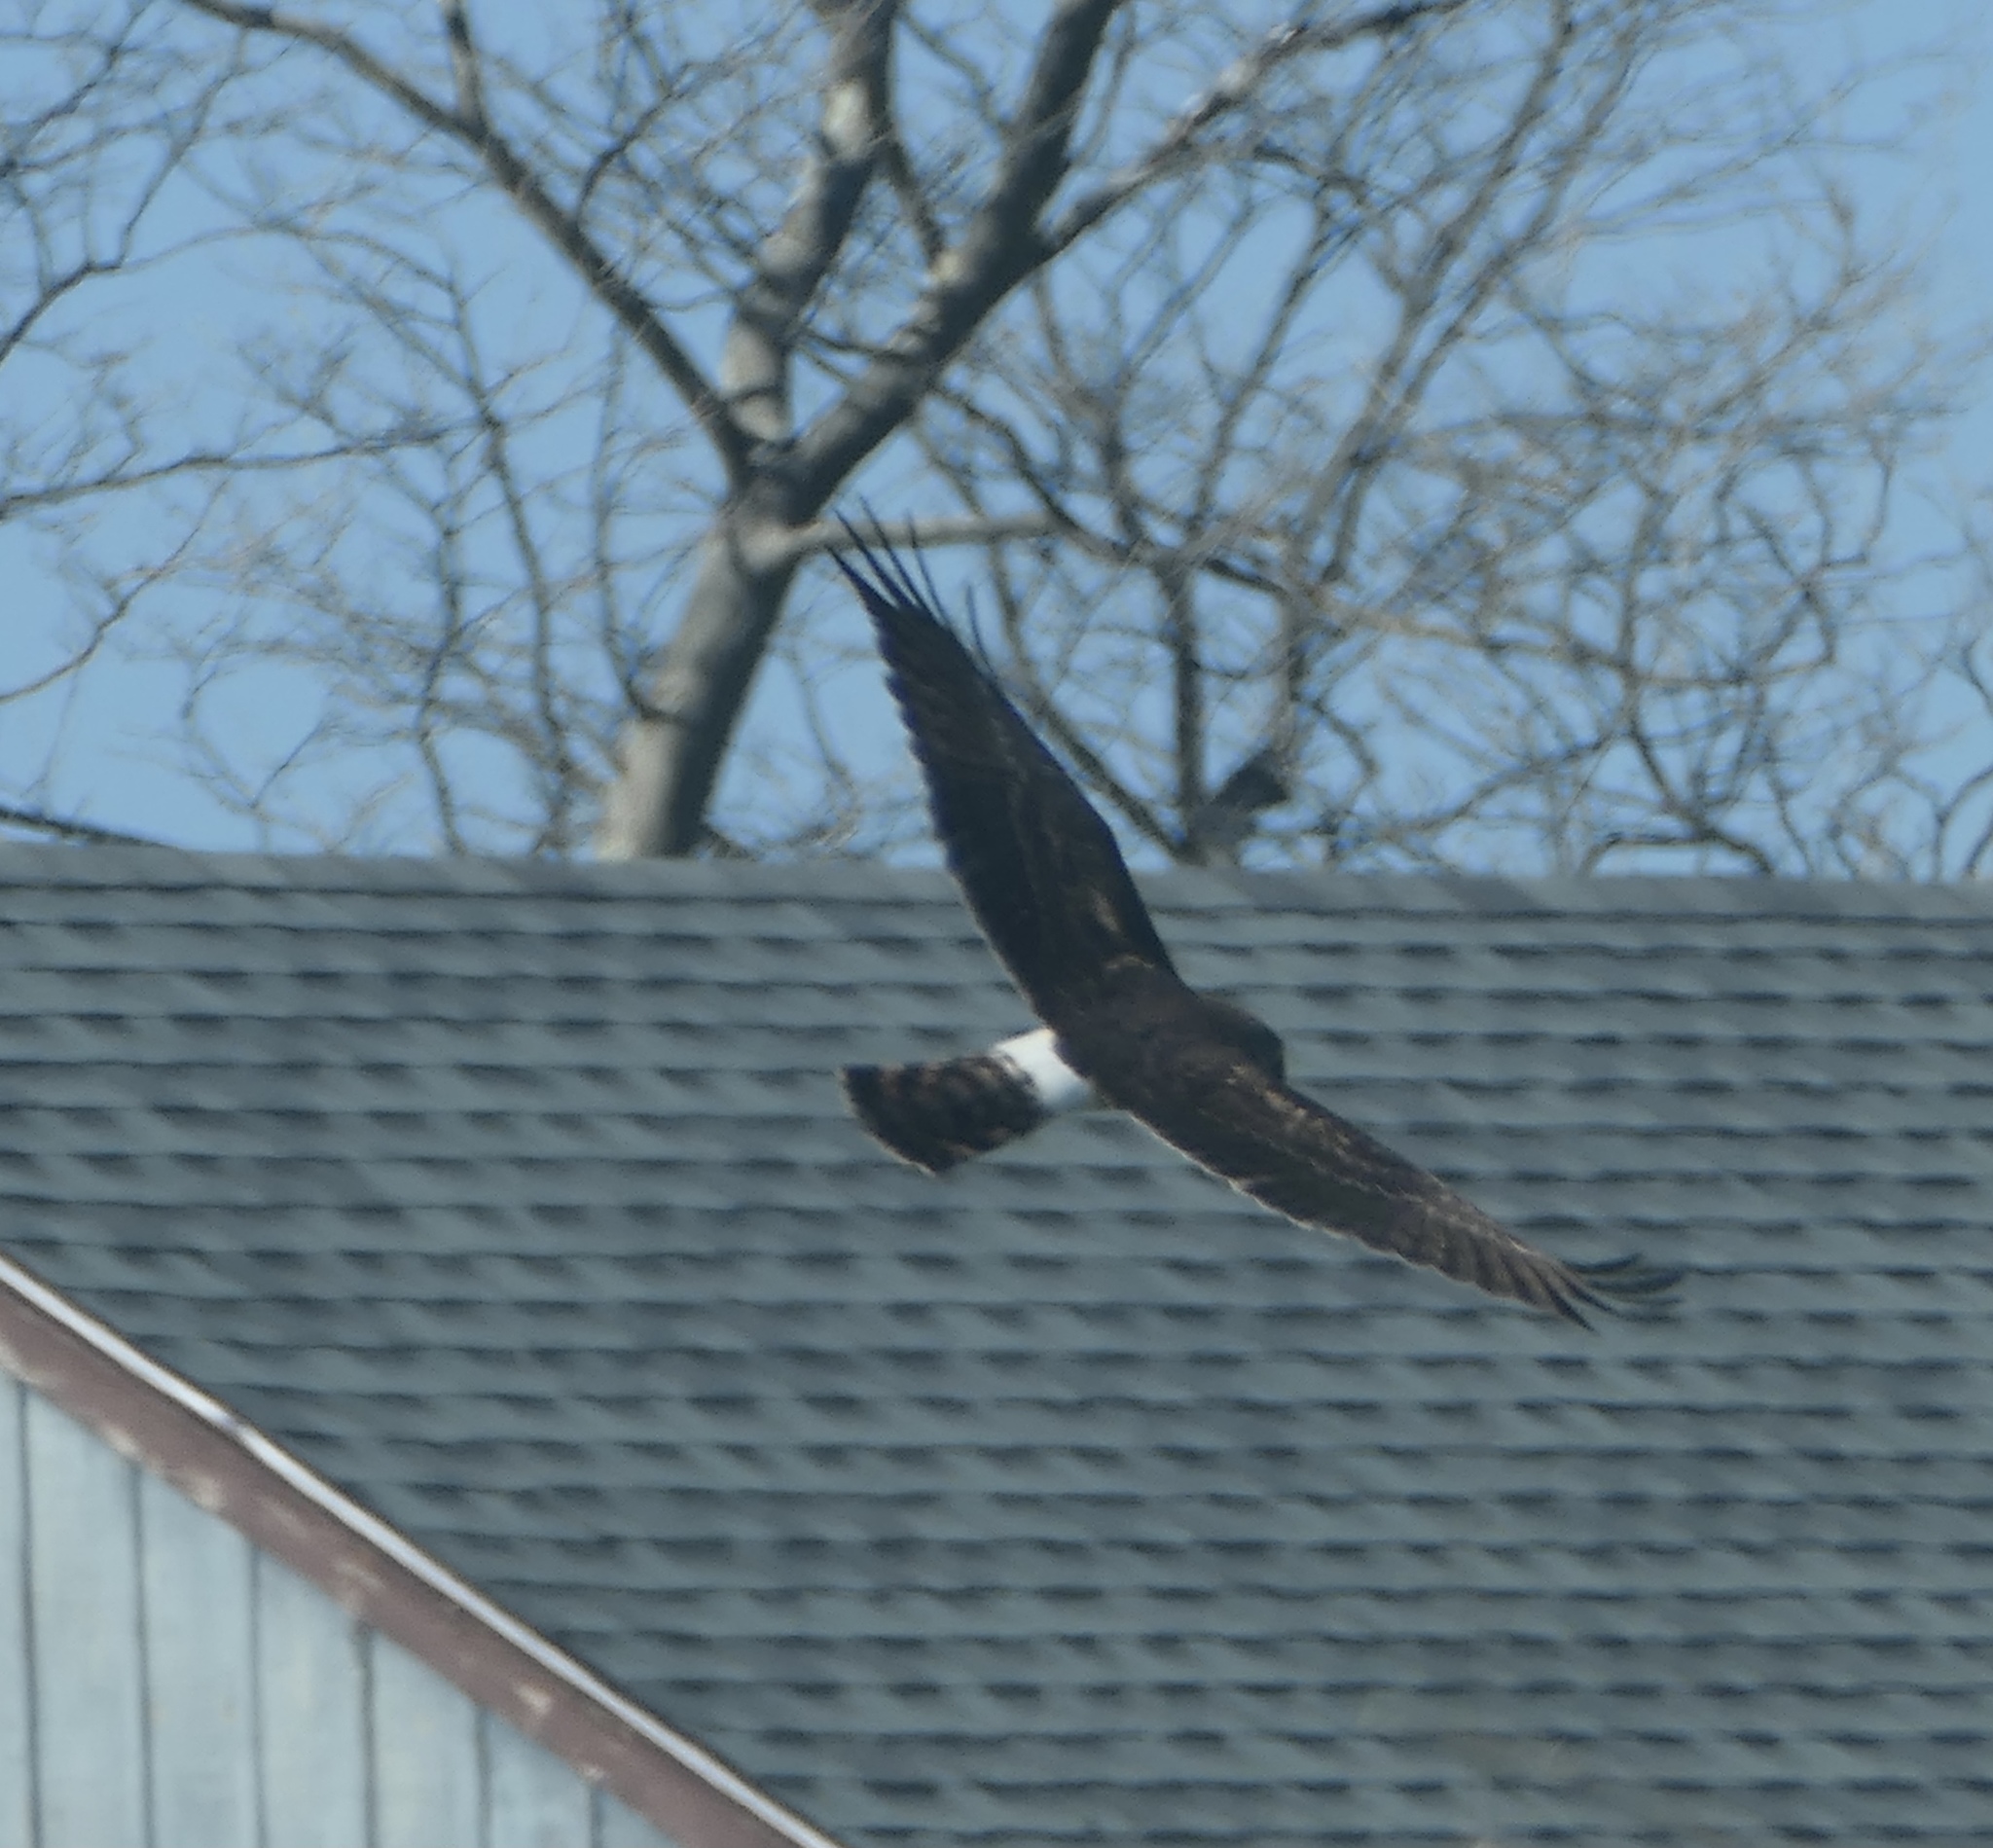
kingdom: Animalia
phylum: Chordata
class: Aves
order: Accipitriformes
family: Accipitridae
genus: Circus
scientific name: Circus cyaneus
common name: Hen harrier
